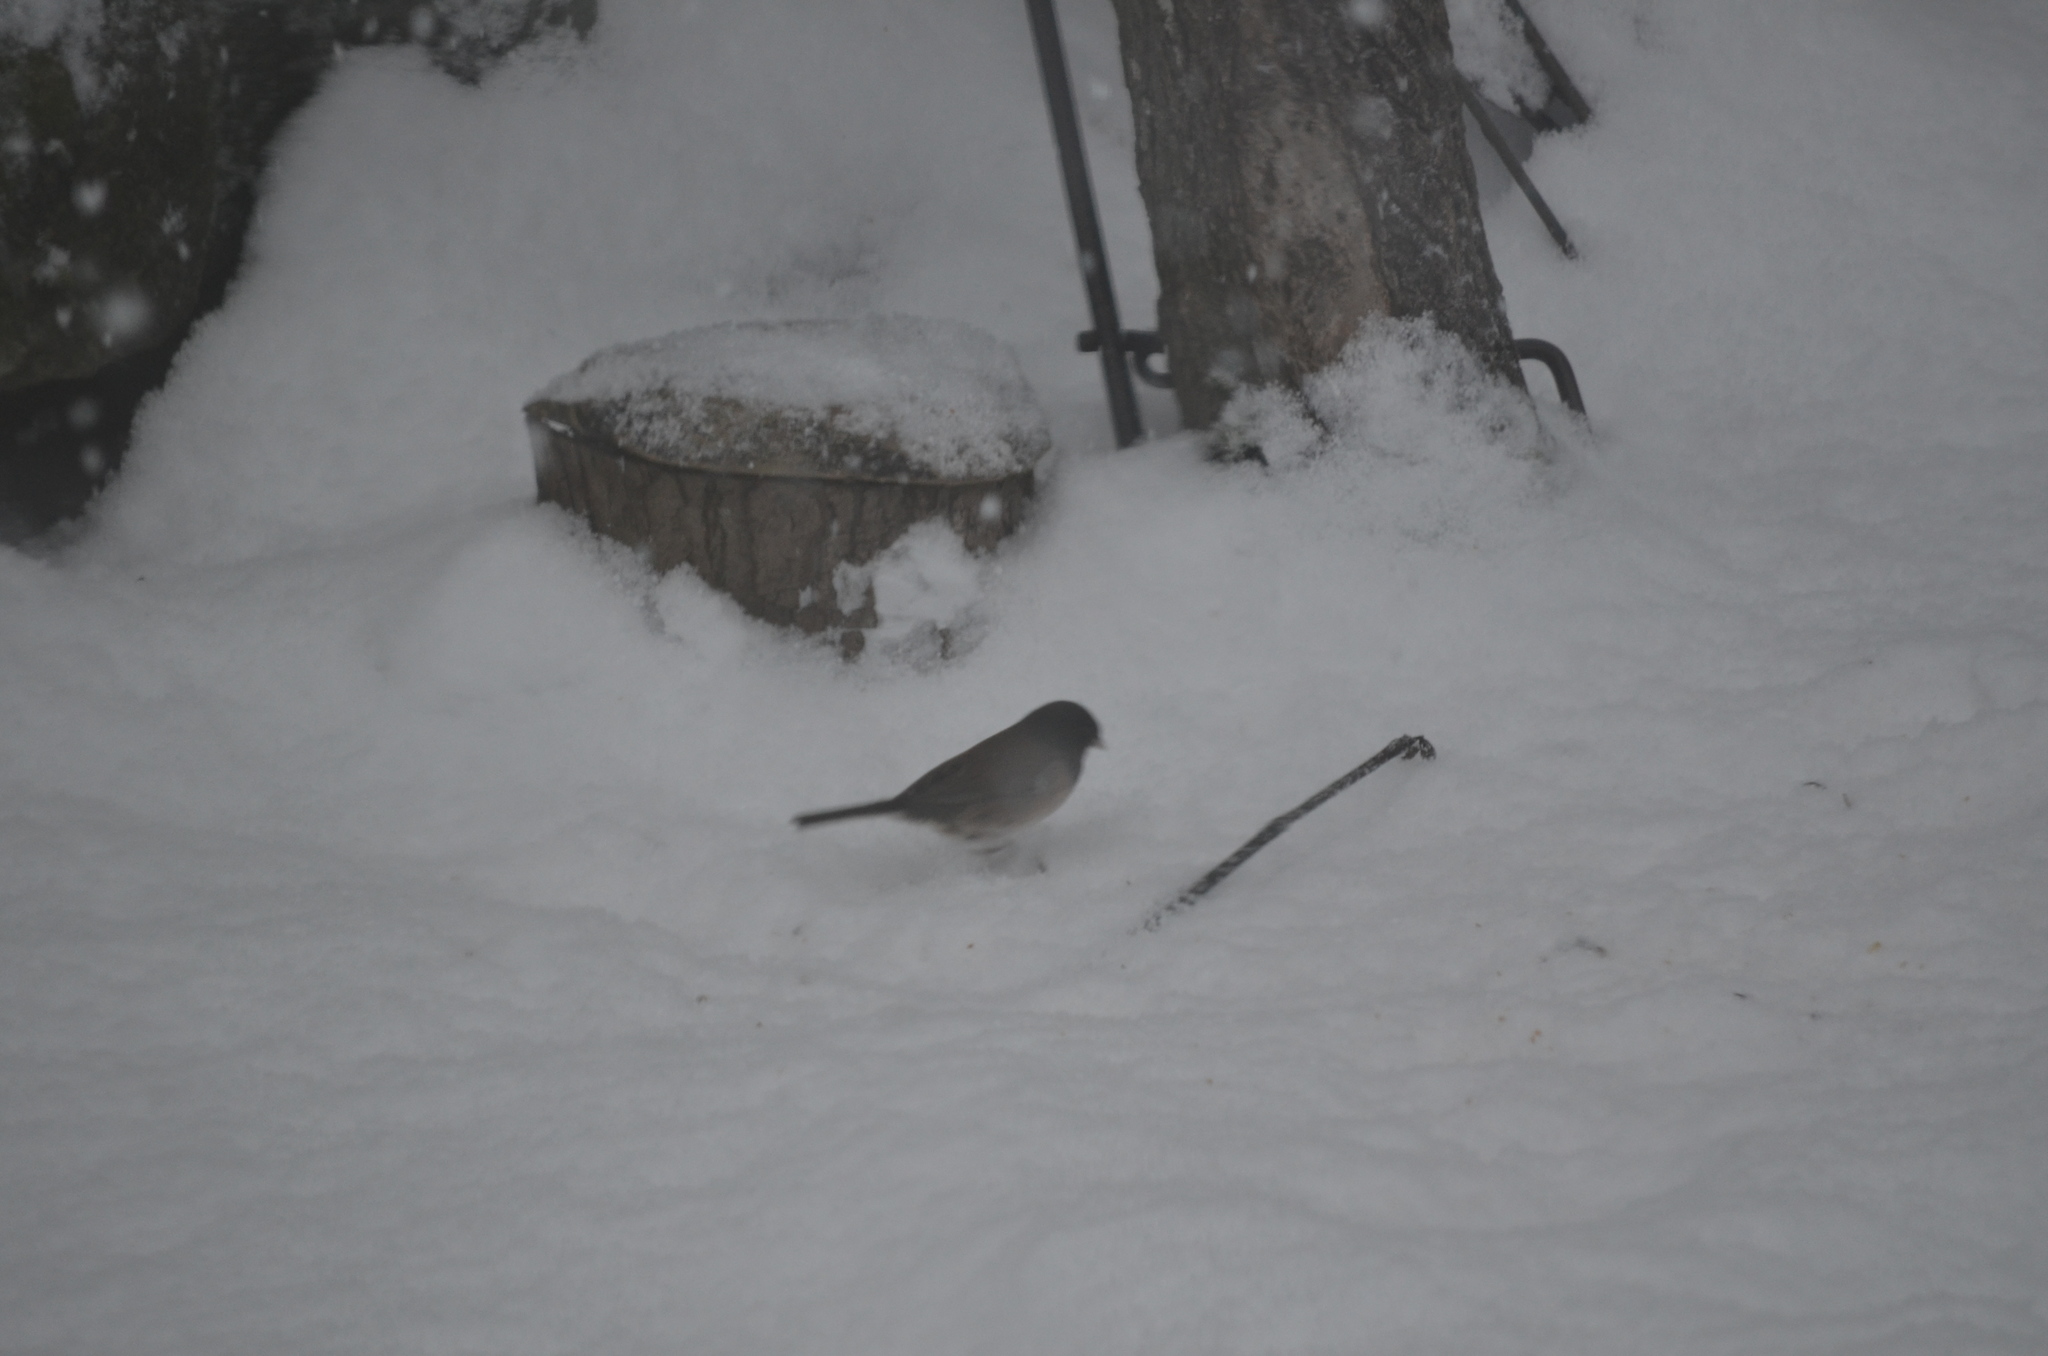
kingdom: Animalia
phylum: Chordata
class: Aves
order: Passeriformes
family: Passerellidae
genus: Junco
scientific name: Junco hyemalis
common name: Dark-eyed junco
